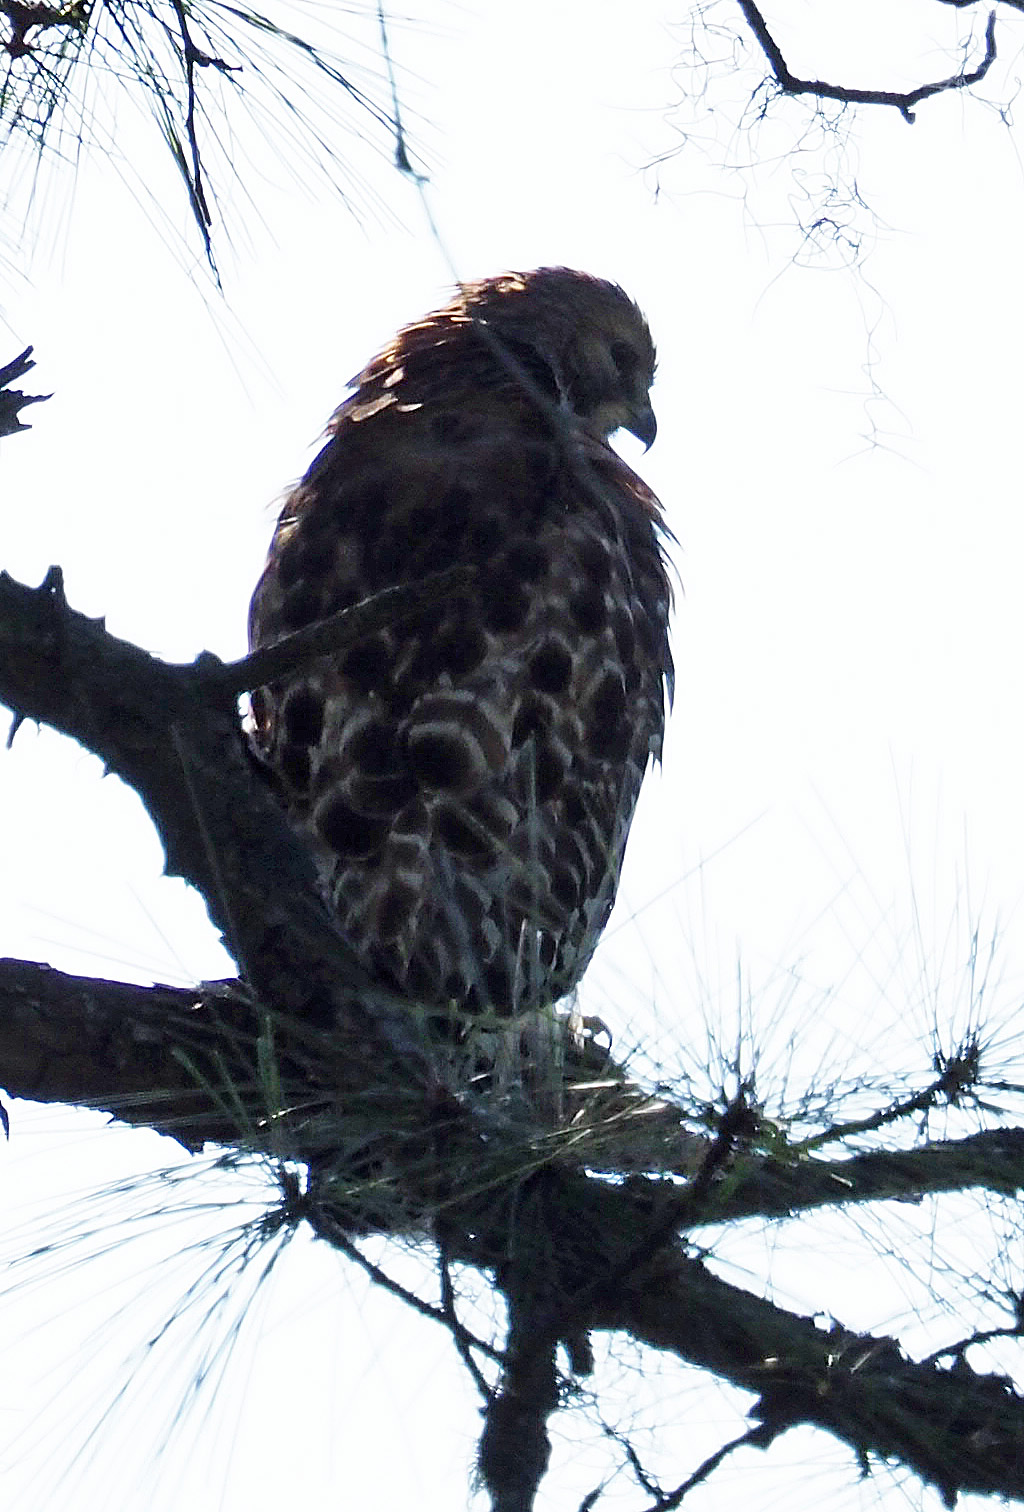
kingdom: Animalia
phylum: Chordata
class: Aves
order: Accipitriformes
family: Accipitridae
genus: Buteo
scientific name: Buteo lineatus
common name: Red-shouldered hawk
